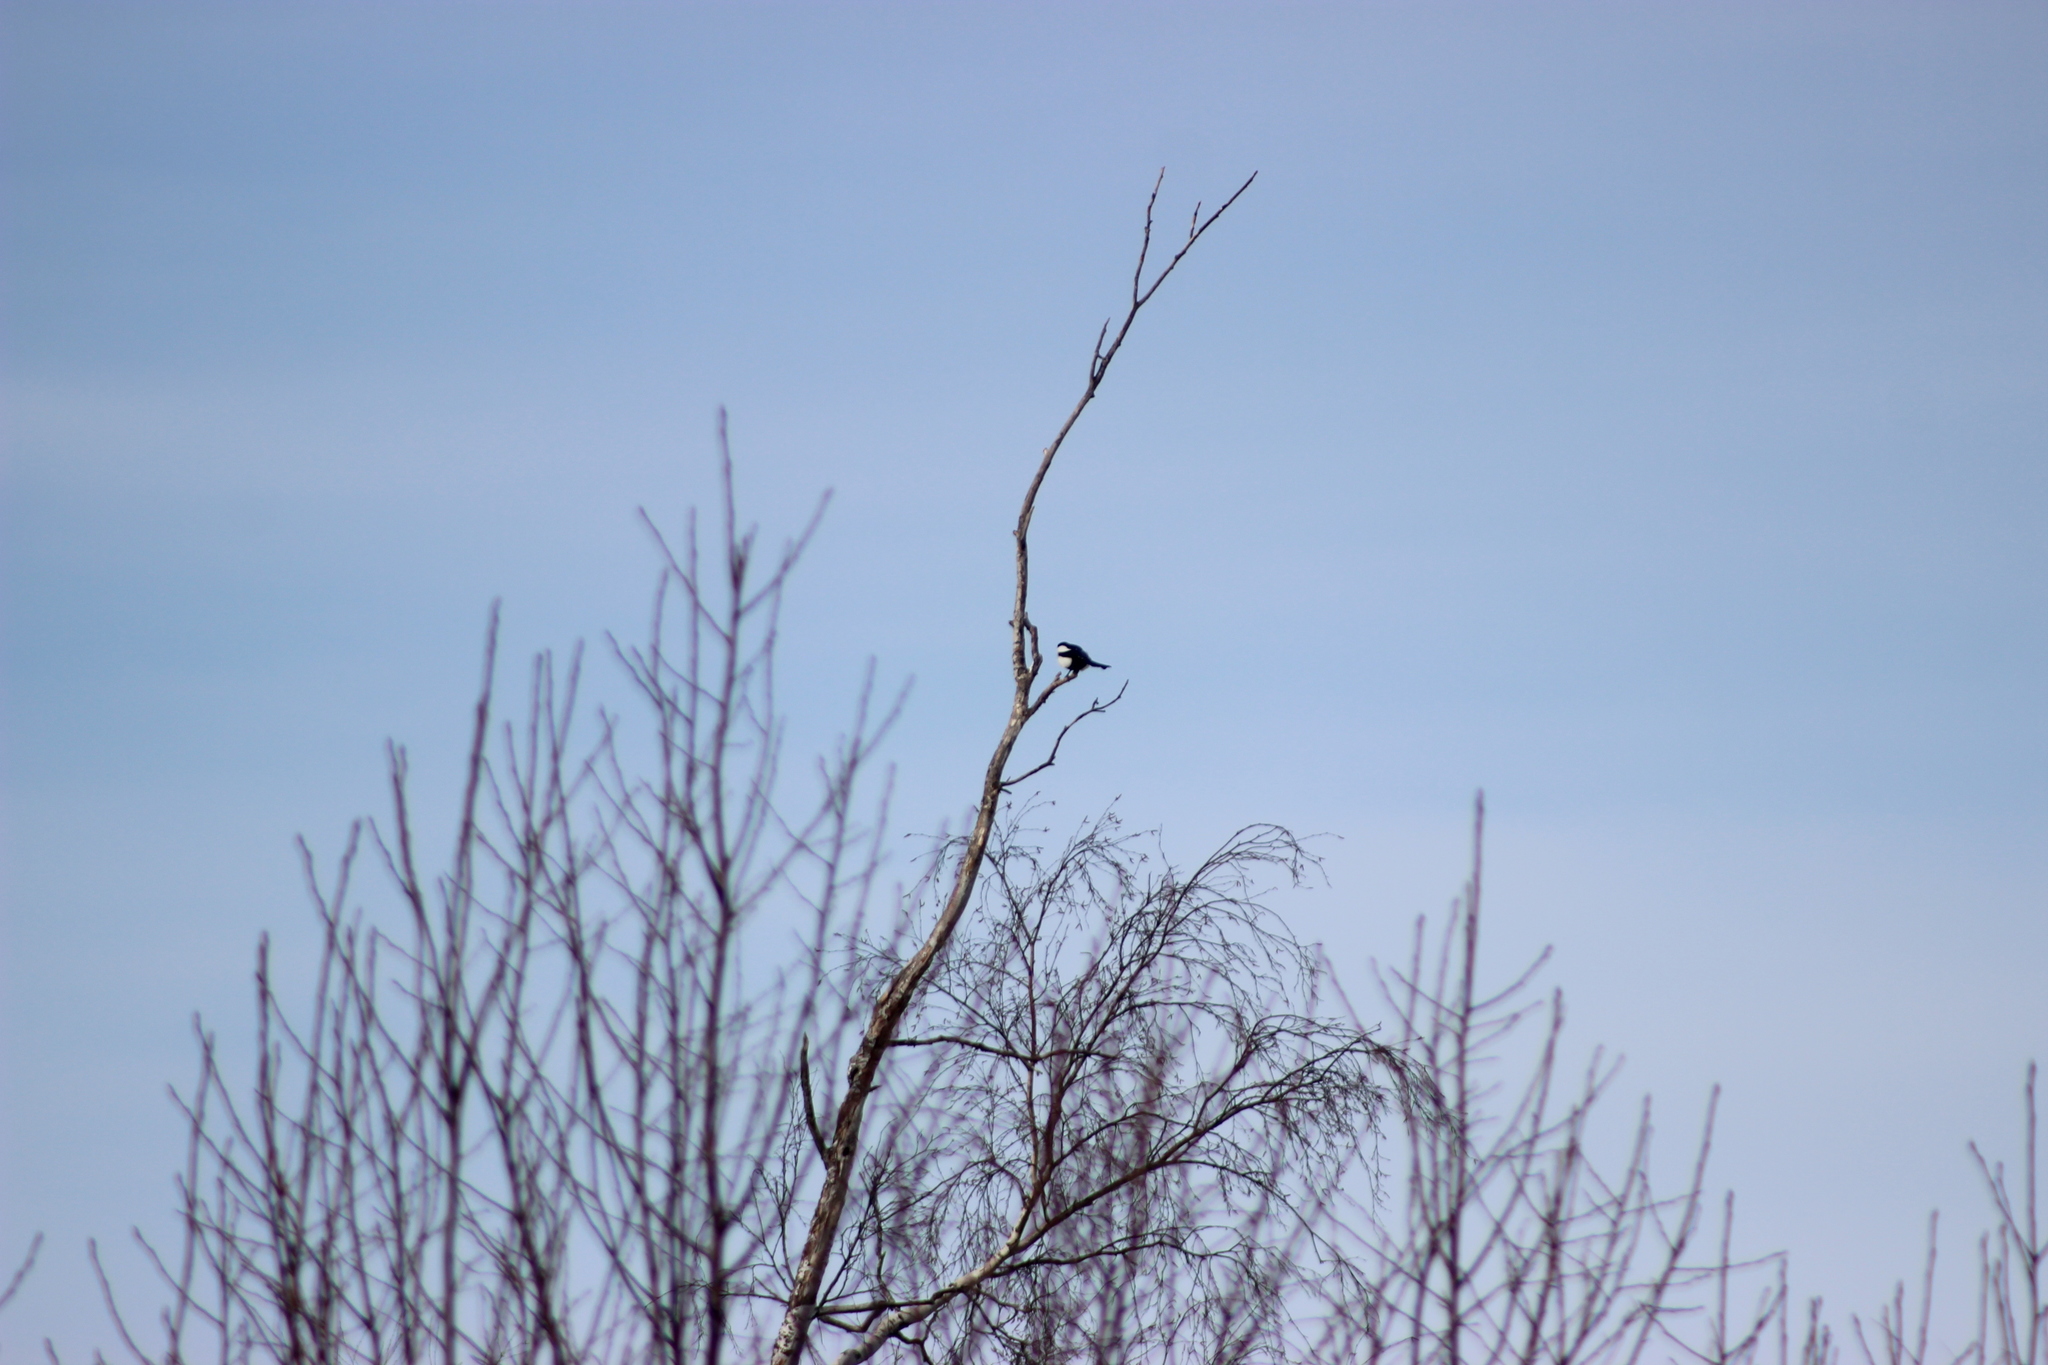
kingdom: Animalia
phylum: Chordata
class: Aves
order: Passeriformes
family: Corvidae
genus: Pica
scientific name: Pica pica
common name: Eurasian magpie
